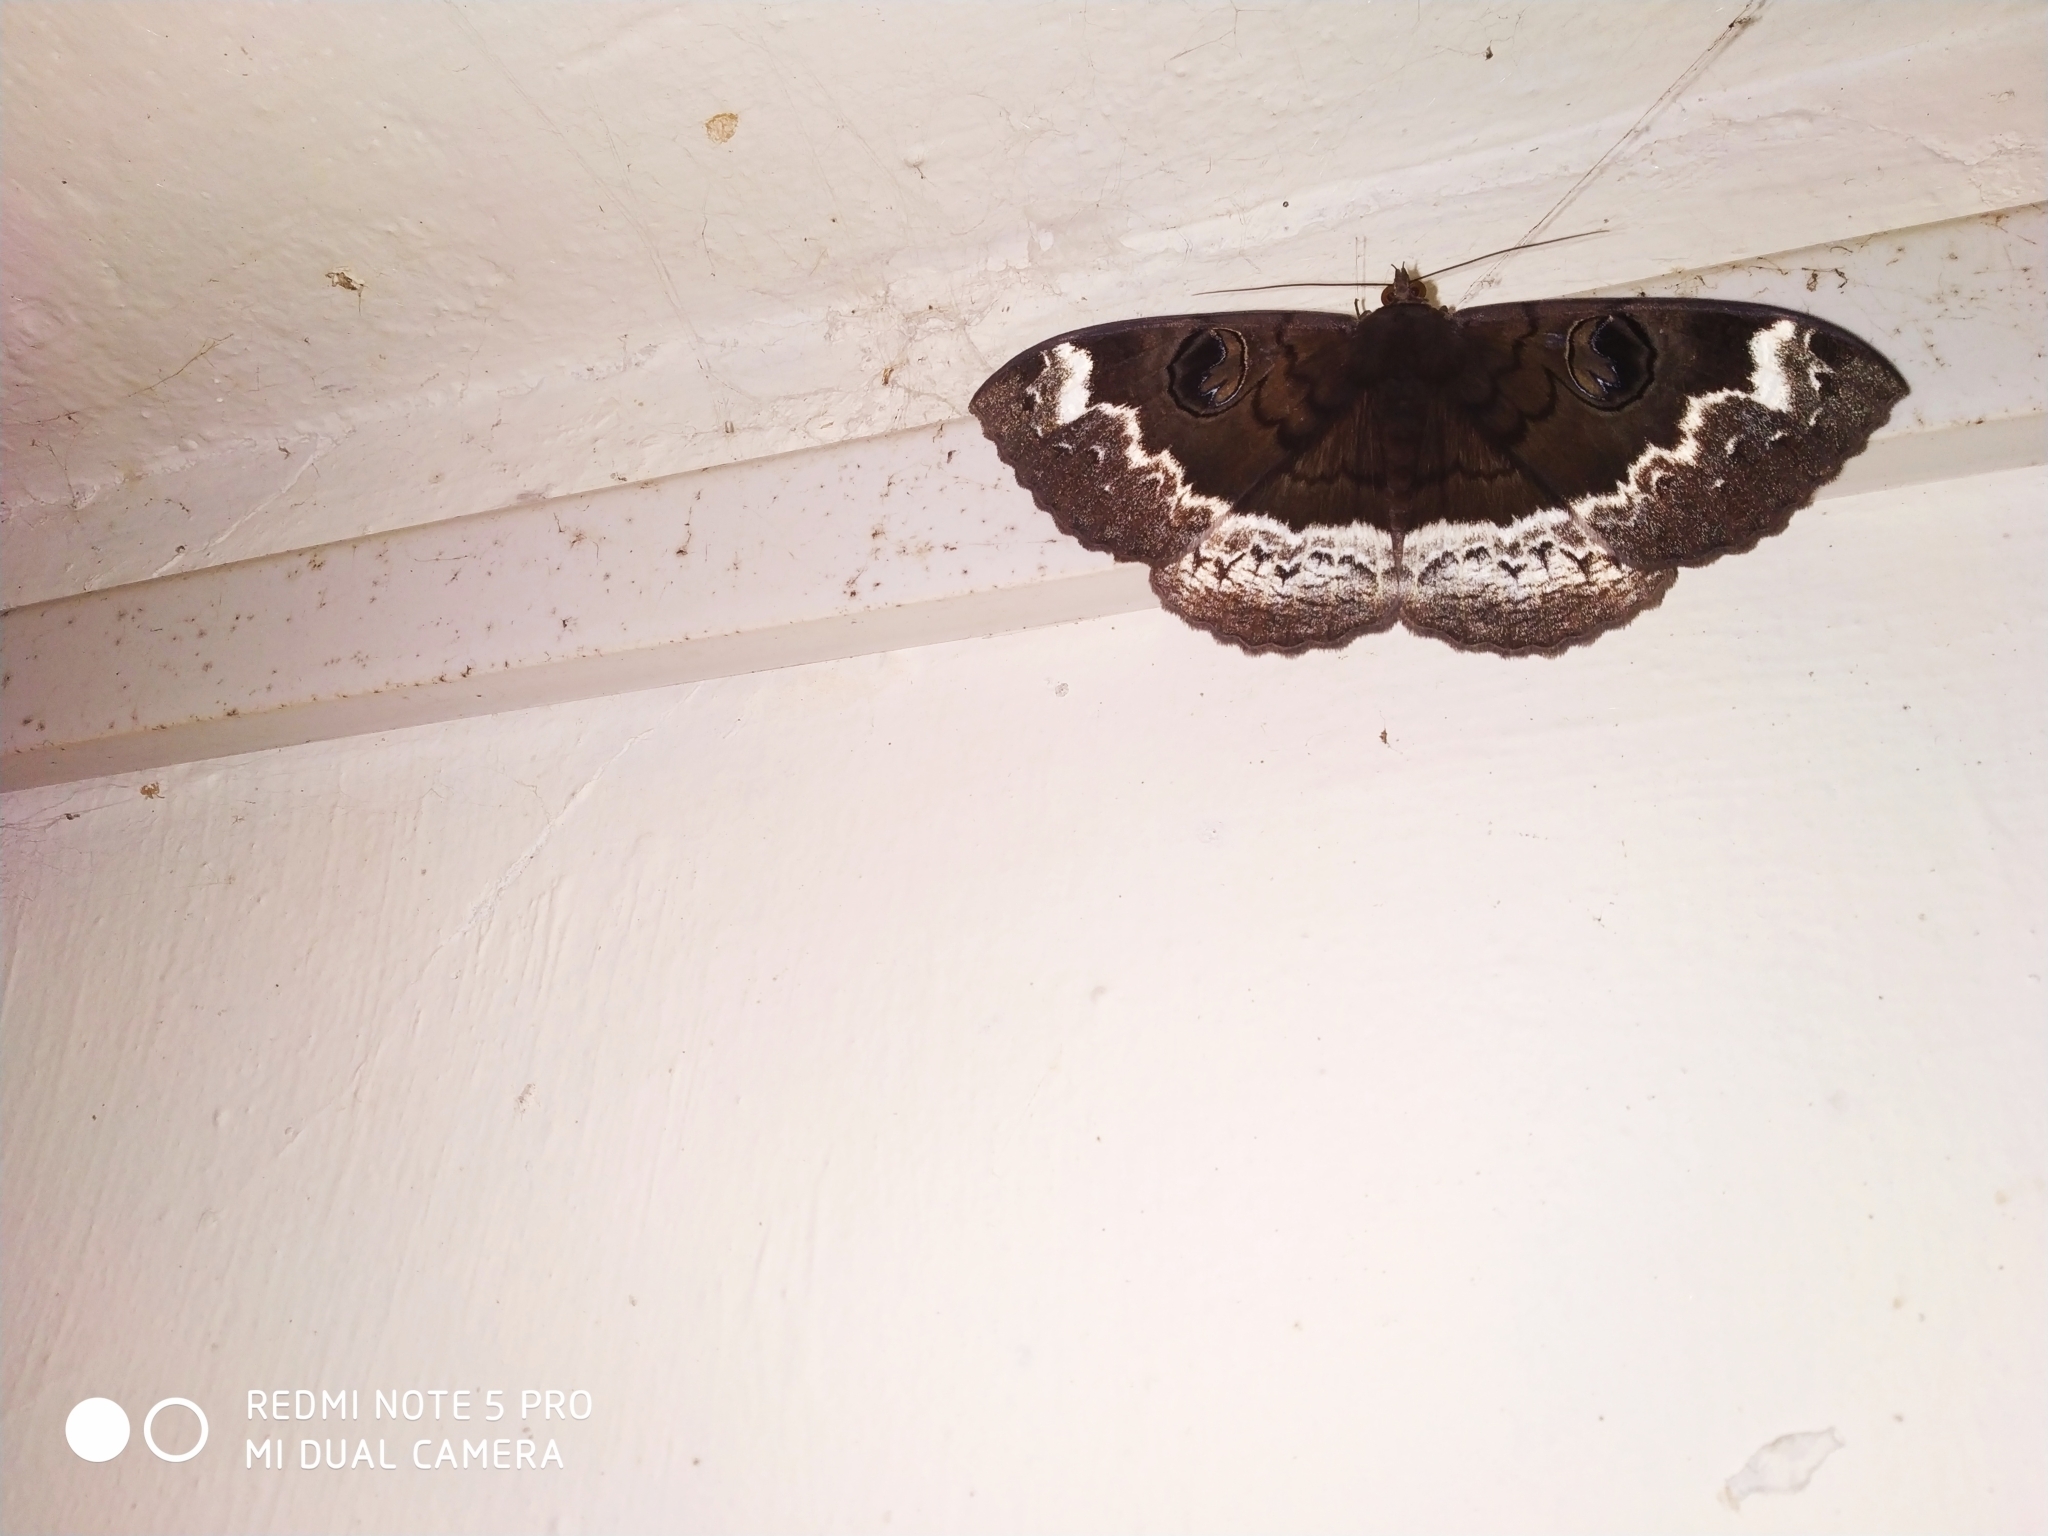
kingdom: Animalia
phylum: Arthropoda
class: Insecta
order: Lepidoptera
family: Erebidae
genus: Erebus
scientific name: Erebus caprimulgus
